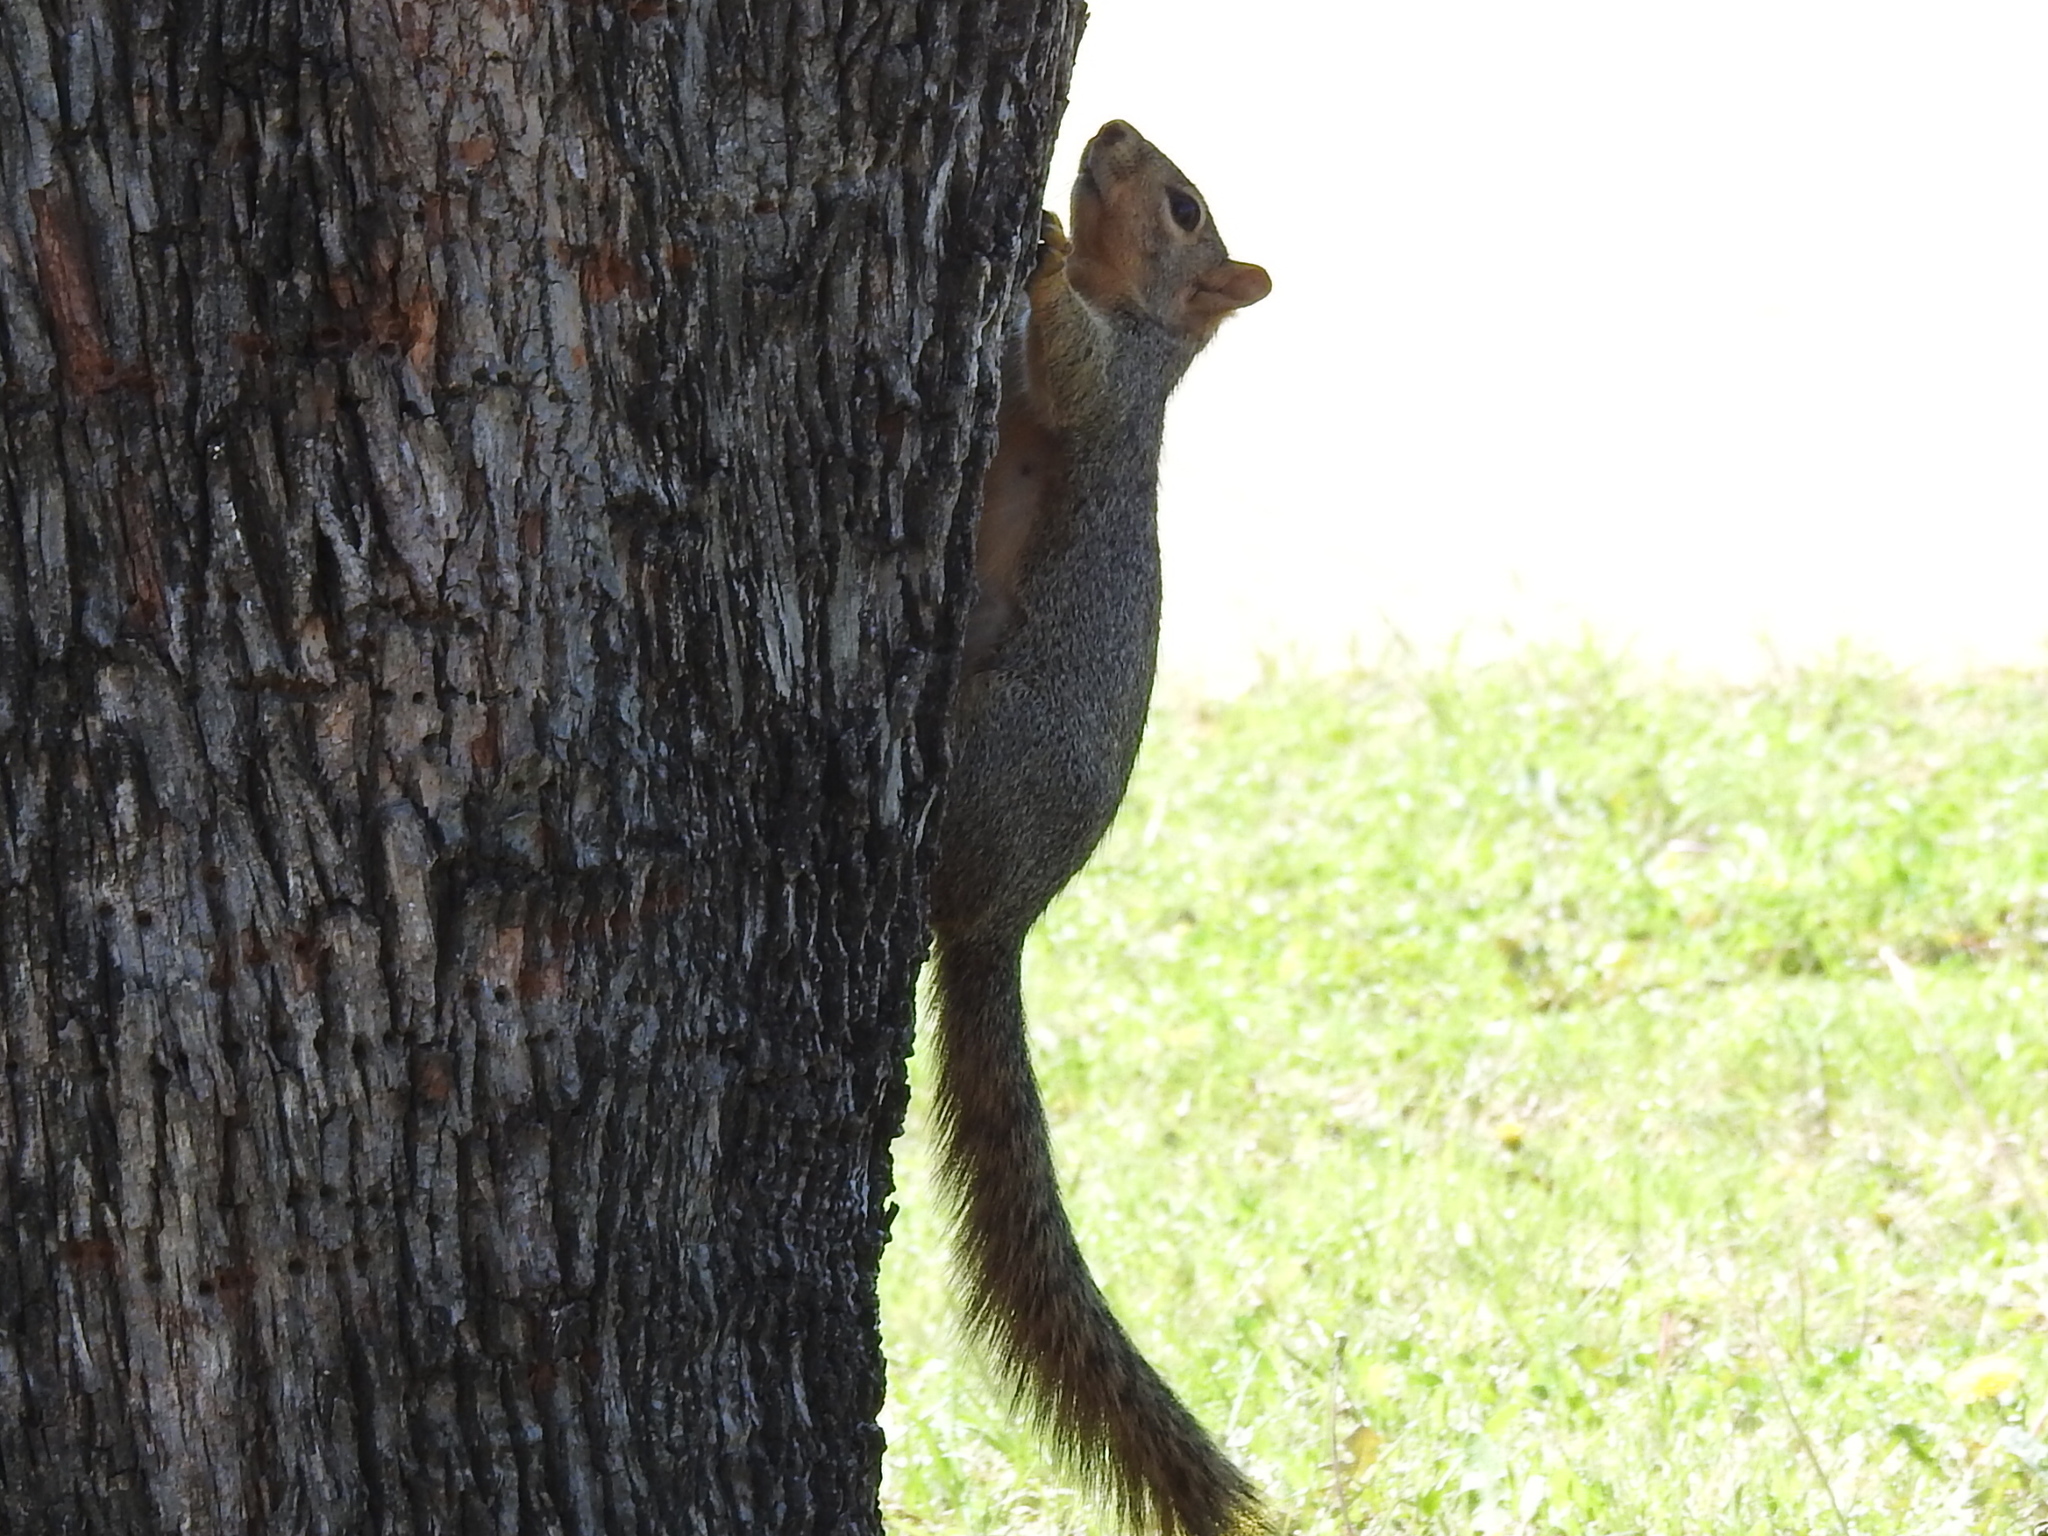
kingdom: Animalia
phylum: Chordata
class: Mammalia
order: Rodentia
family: Sciuridae
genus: Sciurus
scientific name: Sciurus niger
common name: Fox squirrel
